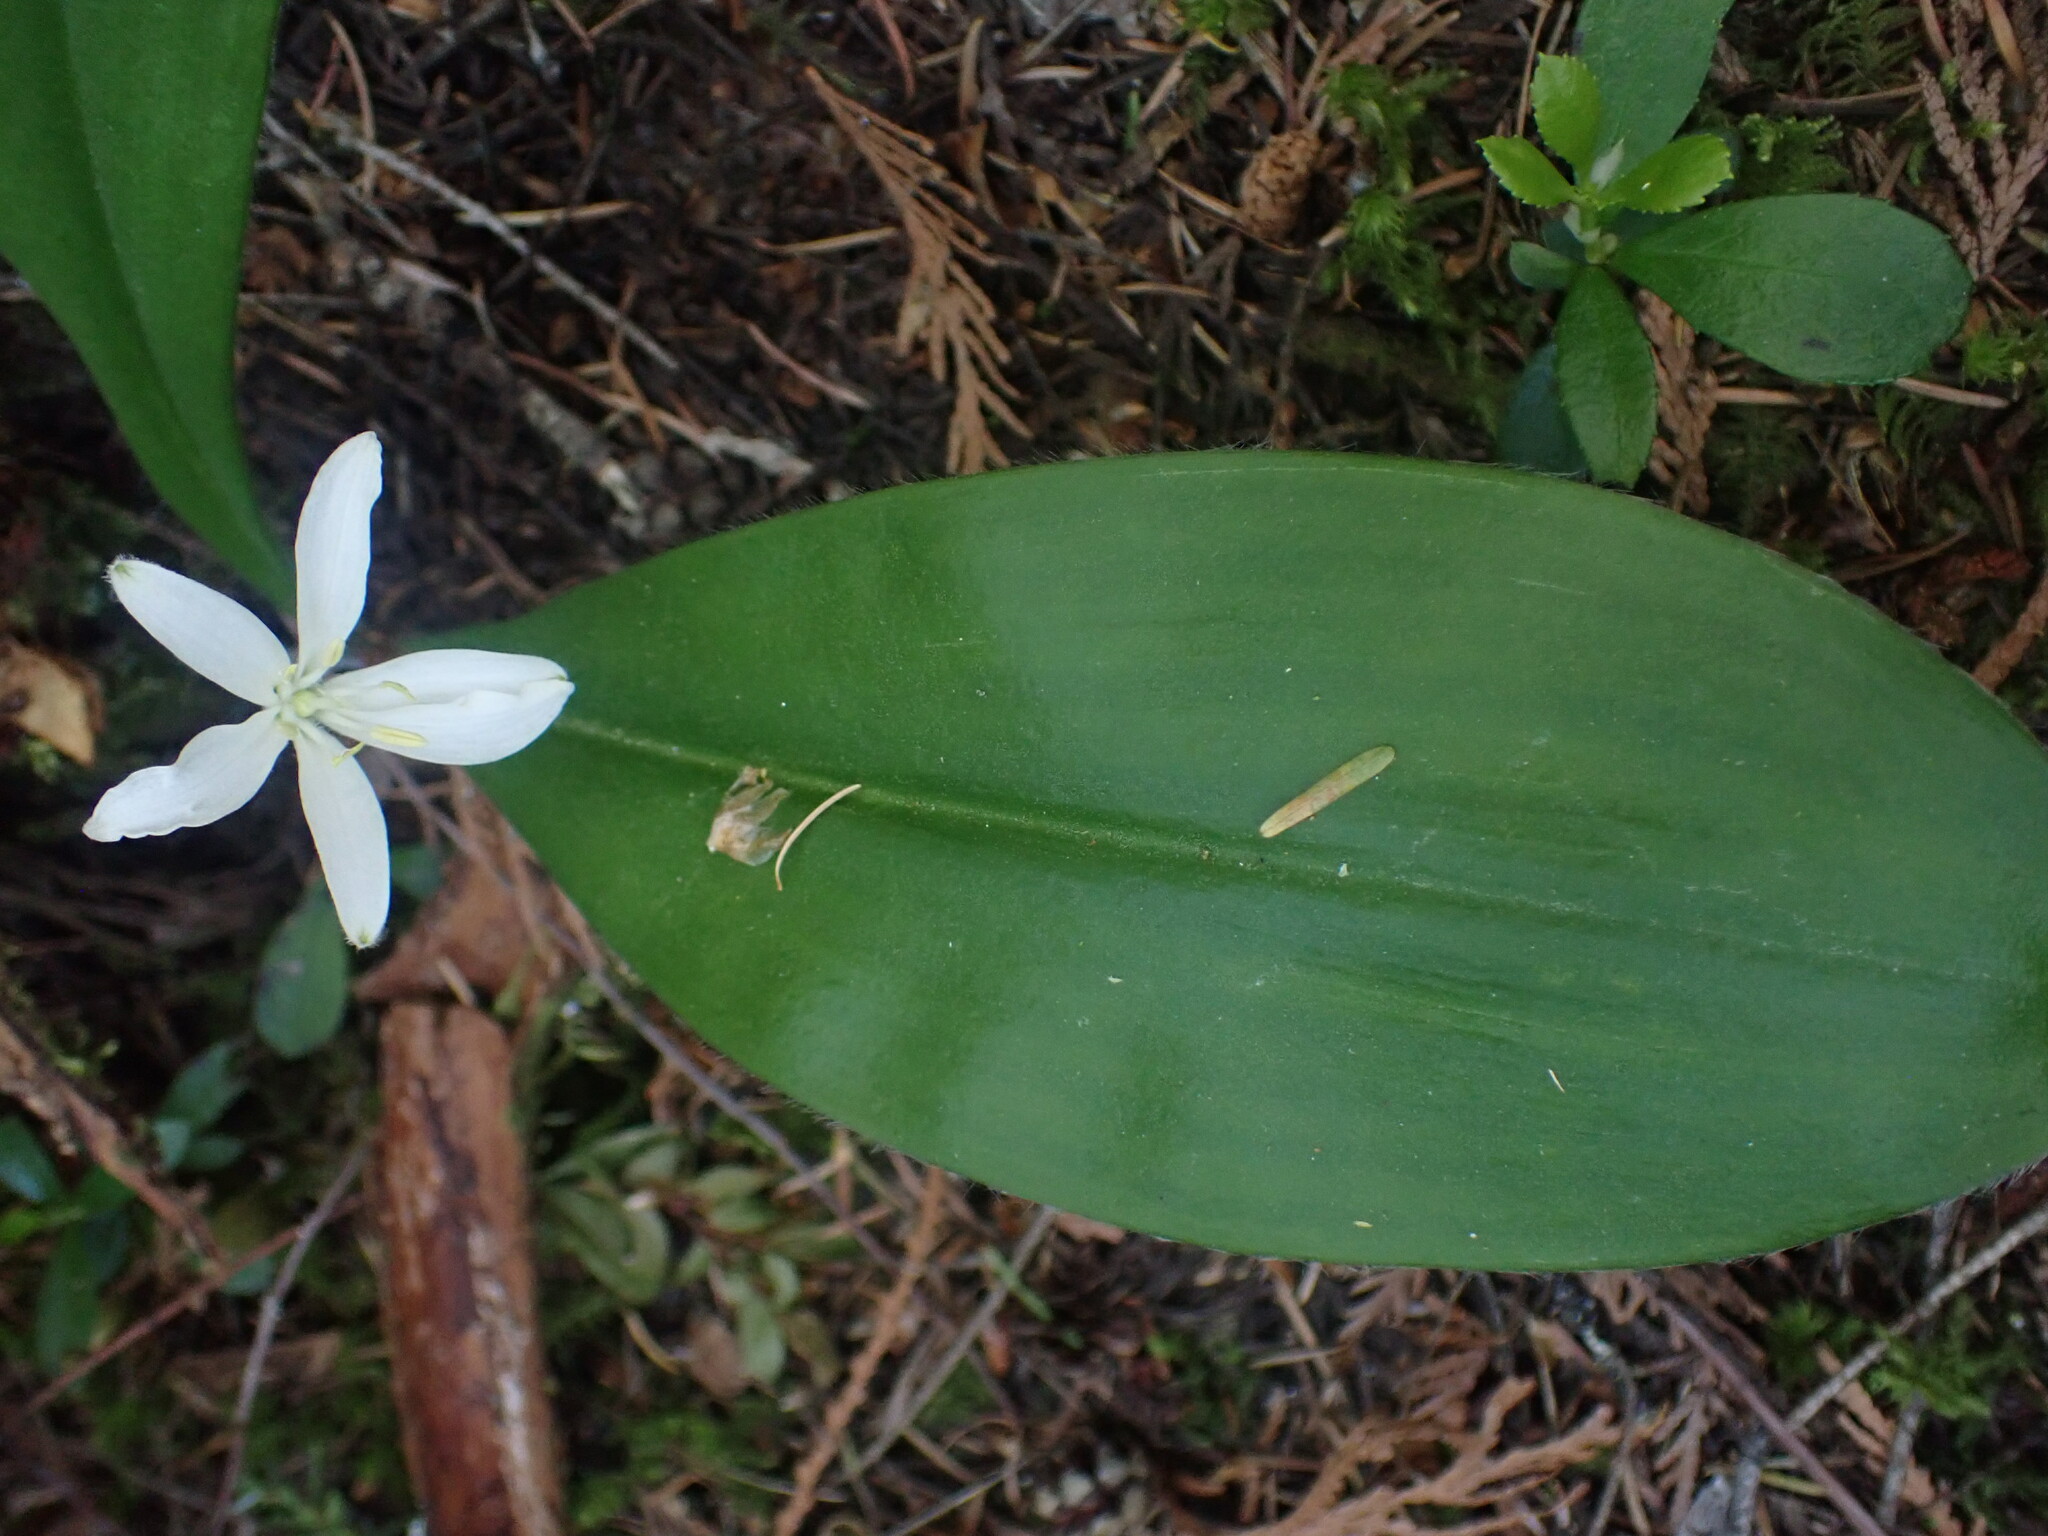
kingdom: Plantae
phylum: Tracheophyta
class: Liliopsida
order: Liliales
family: Liliaceae
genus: Clintonia
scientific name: Clintonia uniflora
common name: Queen's cup
